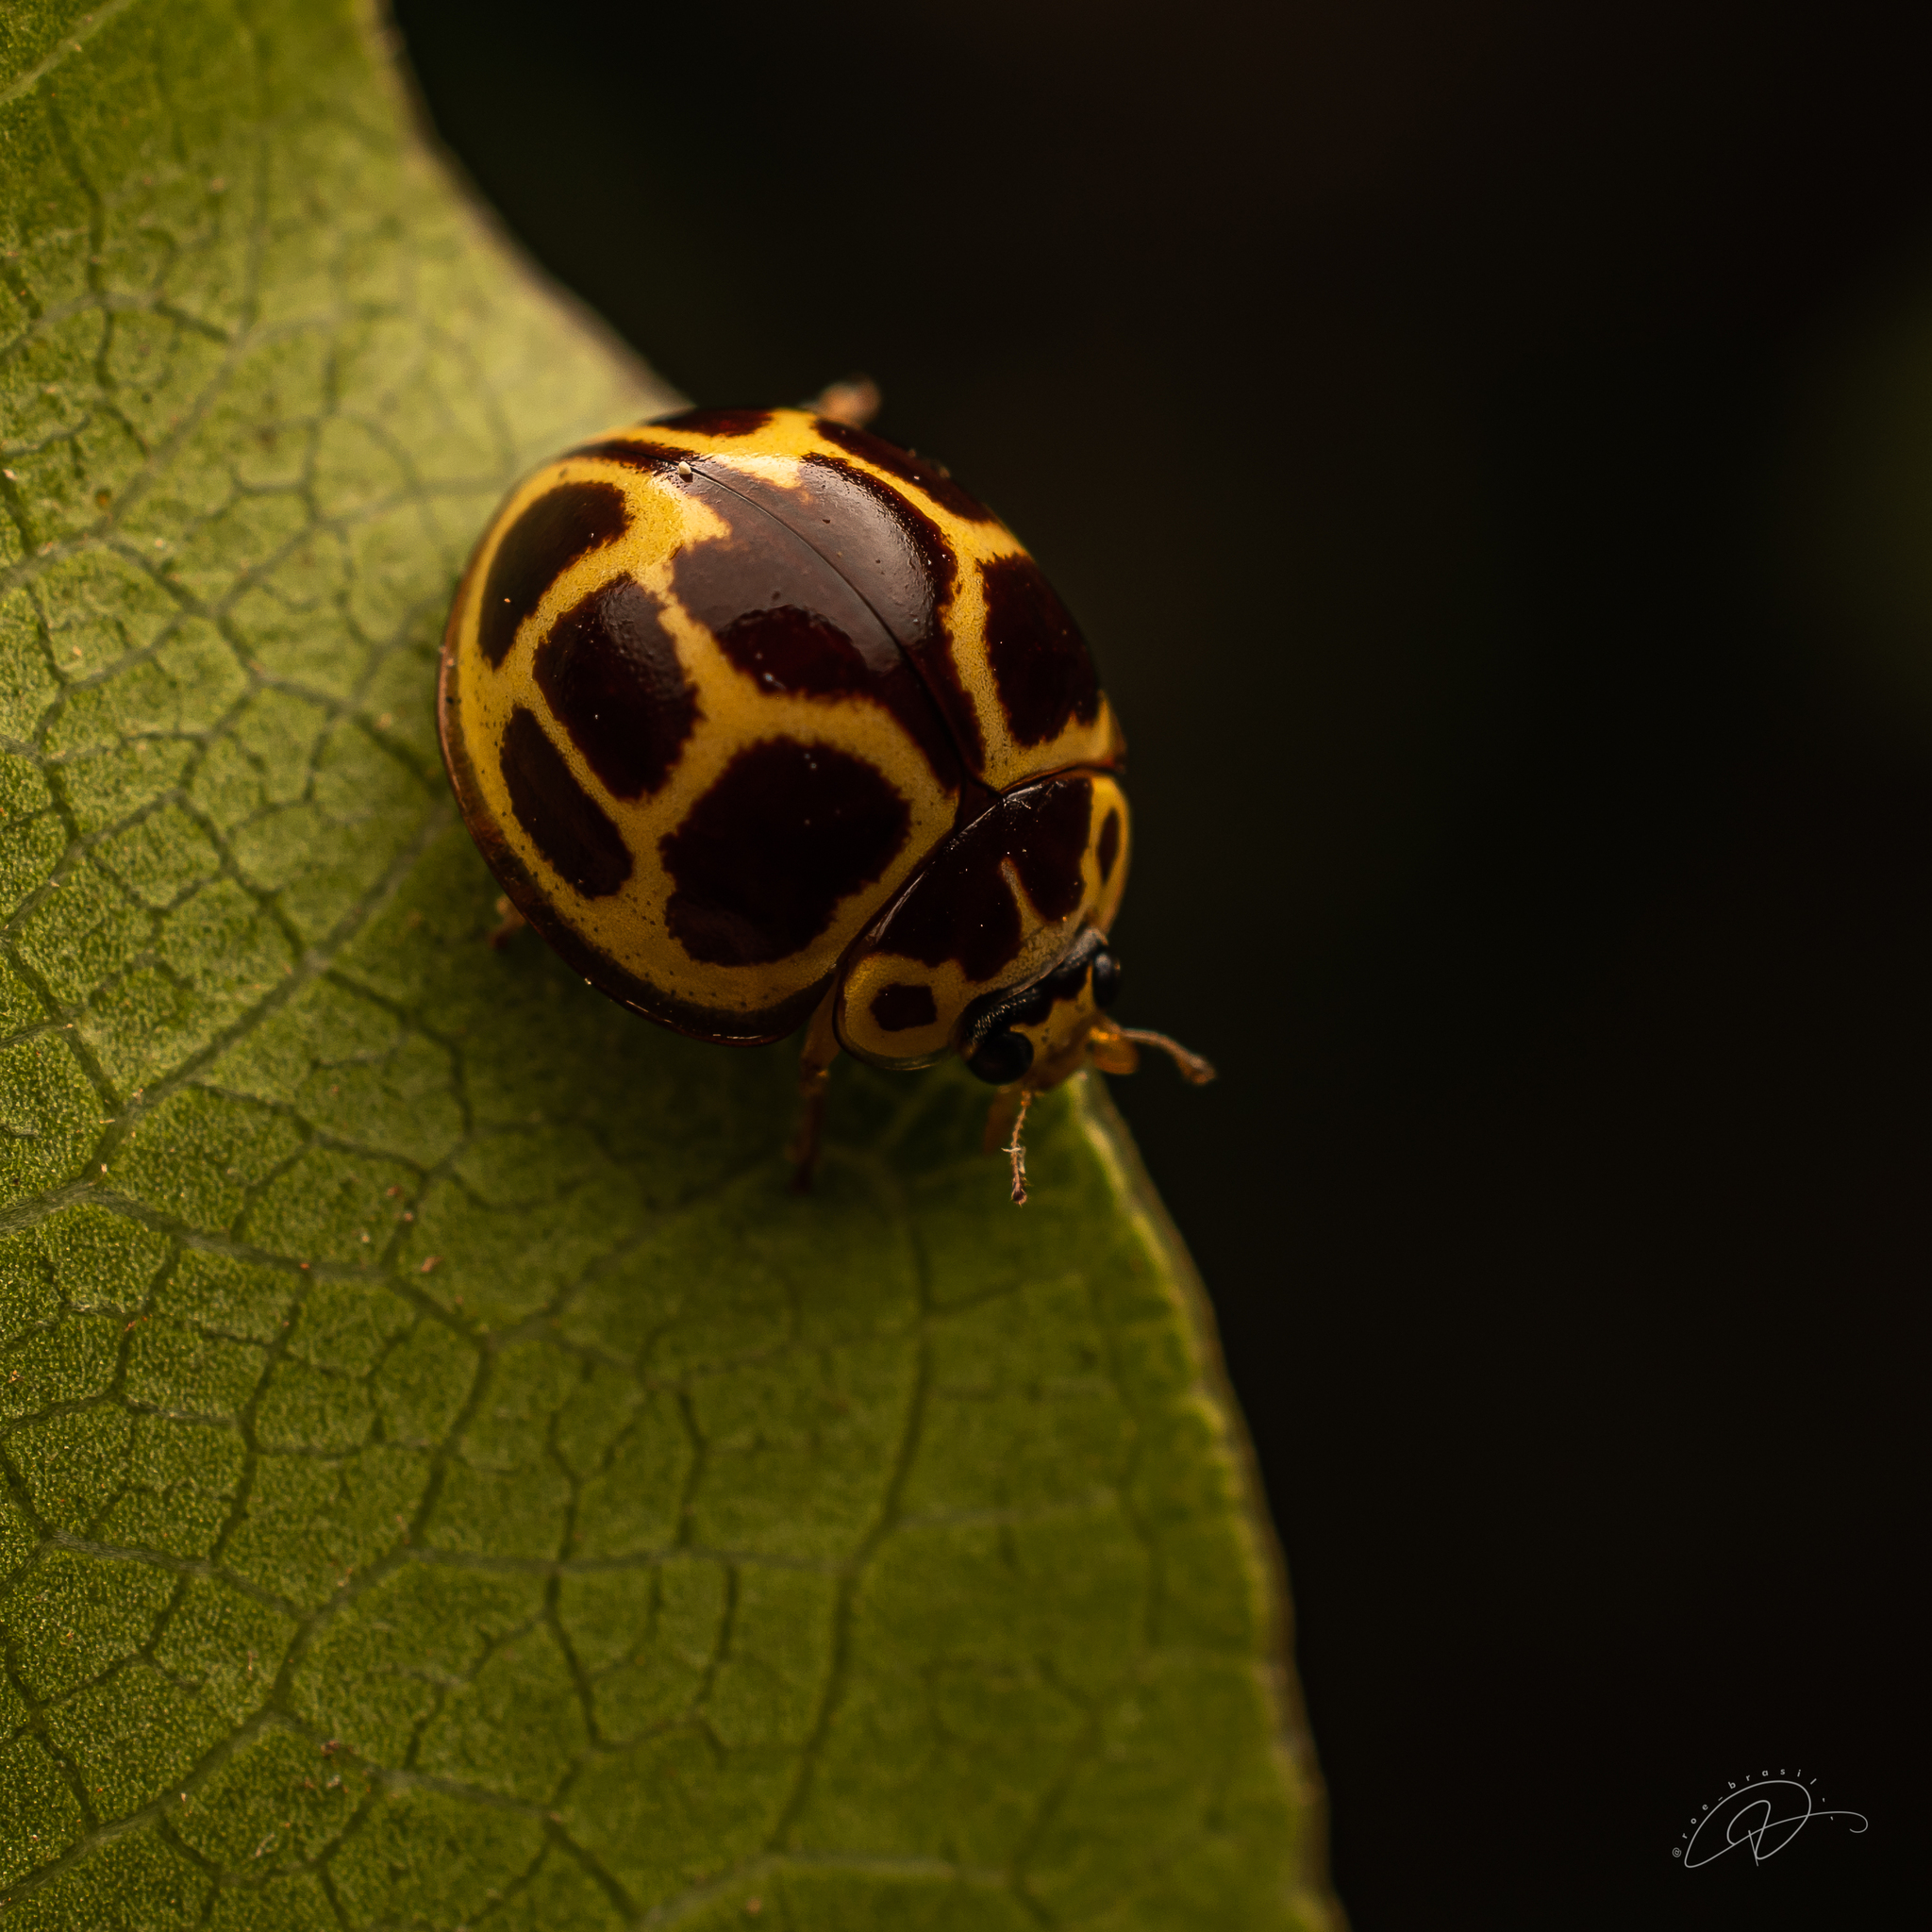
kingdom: Animalia
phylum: Arthropoda
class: Insecta
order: Coleoptera
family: Coccinellidae
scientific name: Coccinellidae
